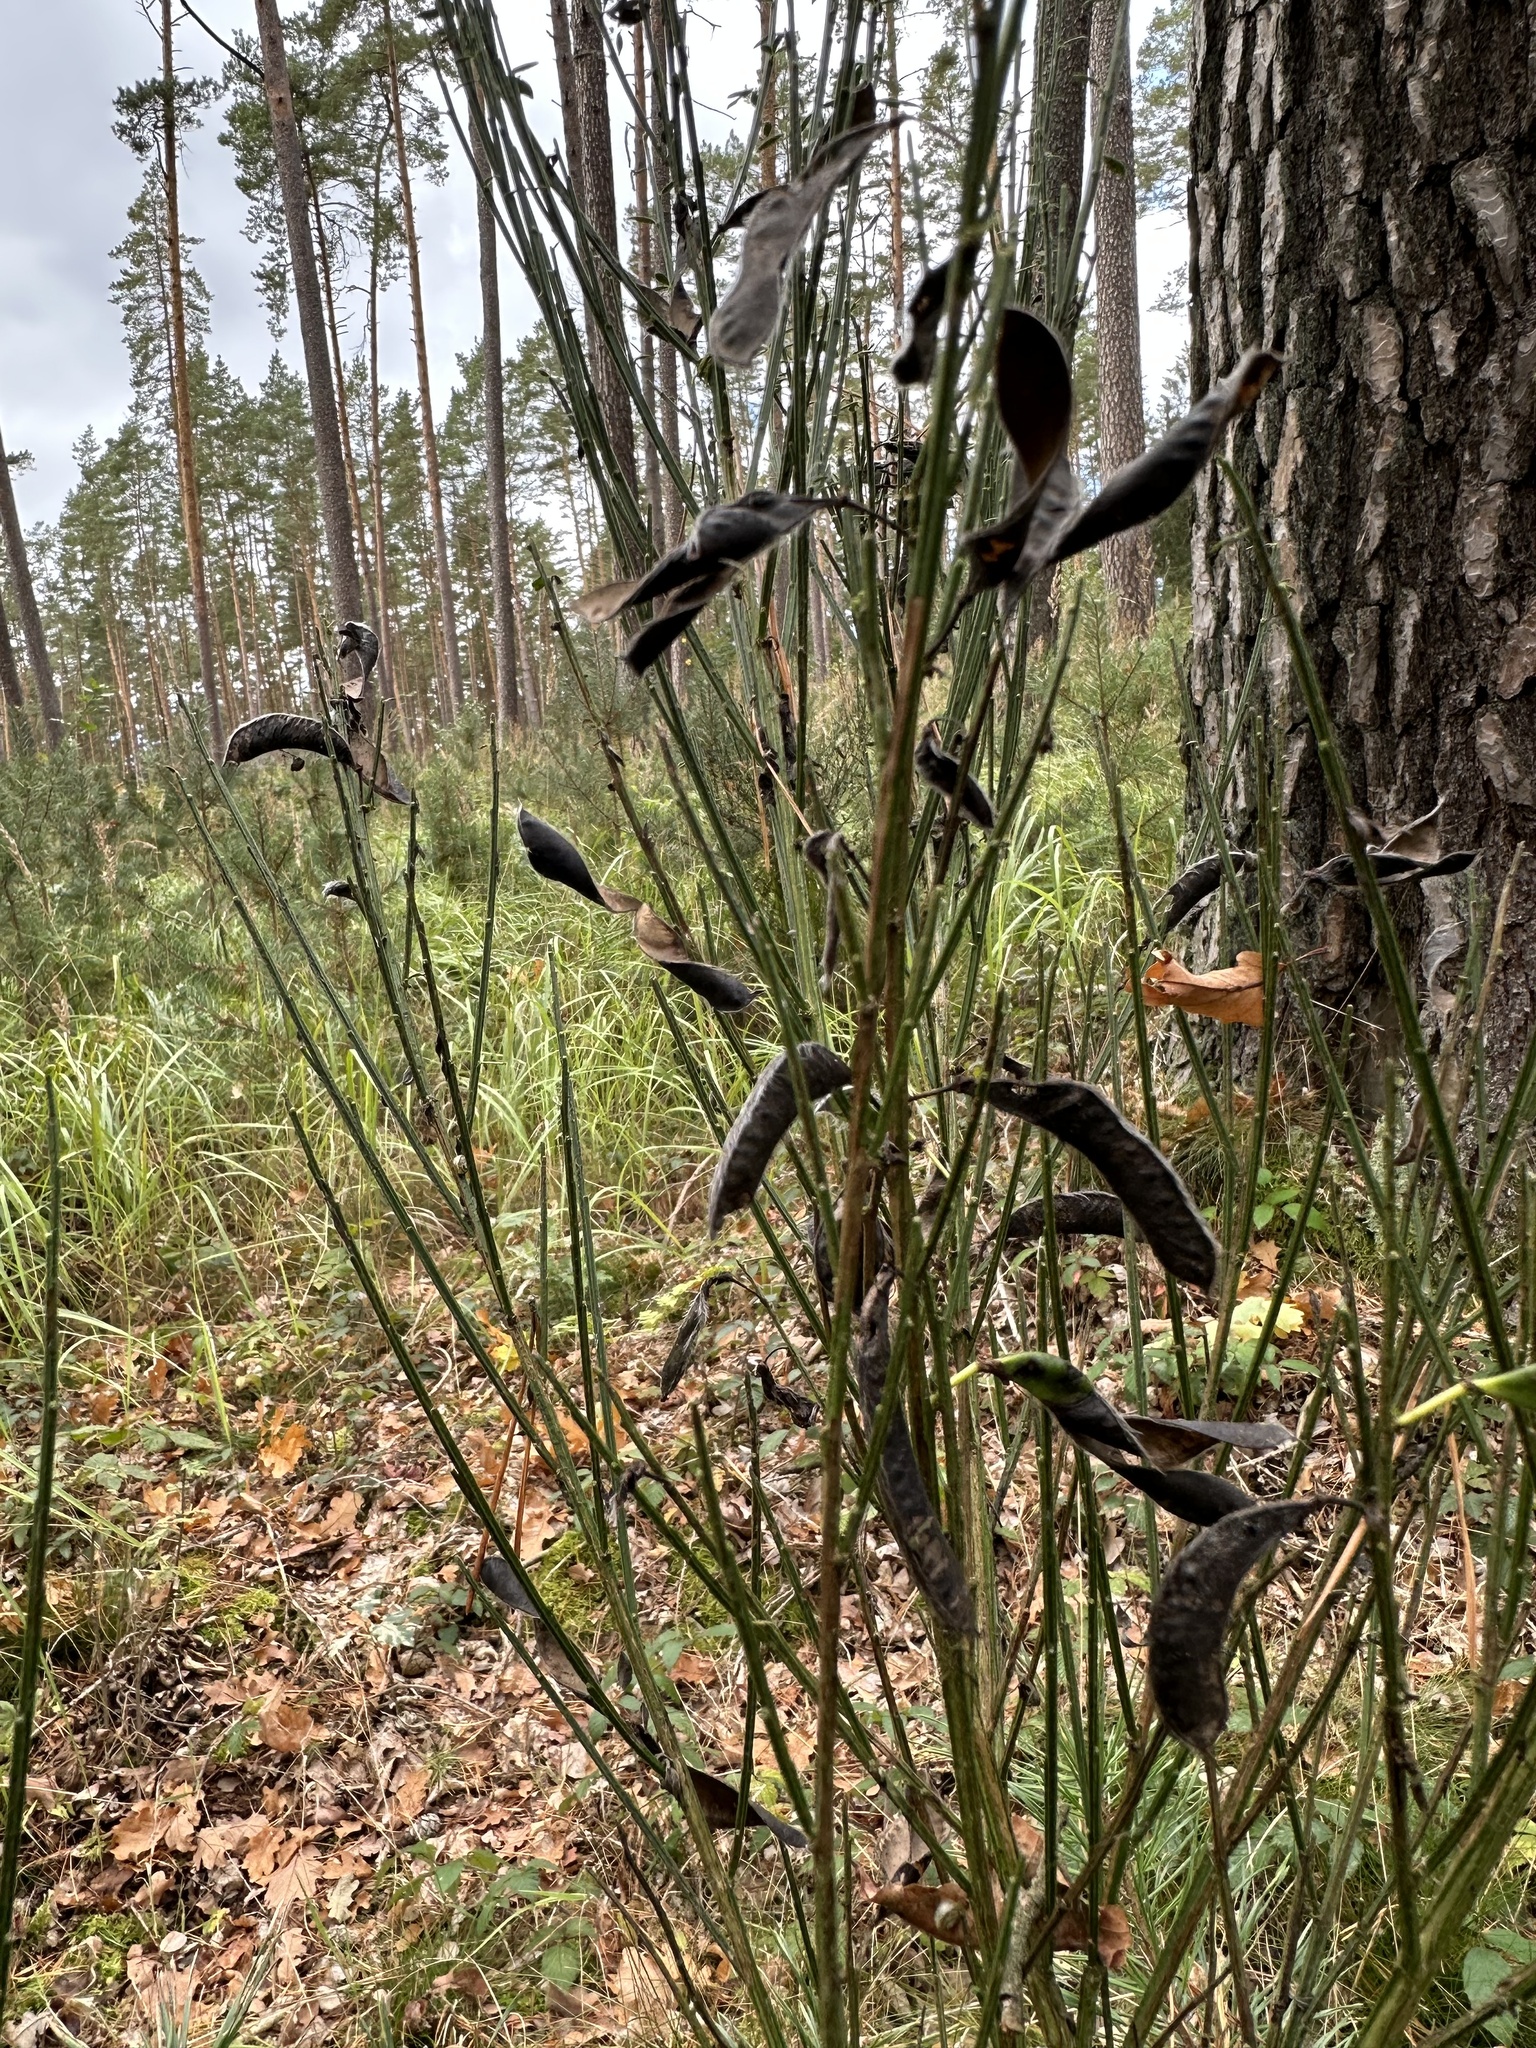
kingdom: Plantae
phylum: Tracheophyta
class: Magnoliopsida
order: Fabales
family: Fabaceae
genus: Cytisus
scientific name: Cytisus scoparius
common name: Scotch broom
